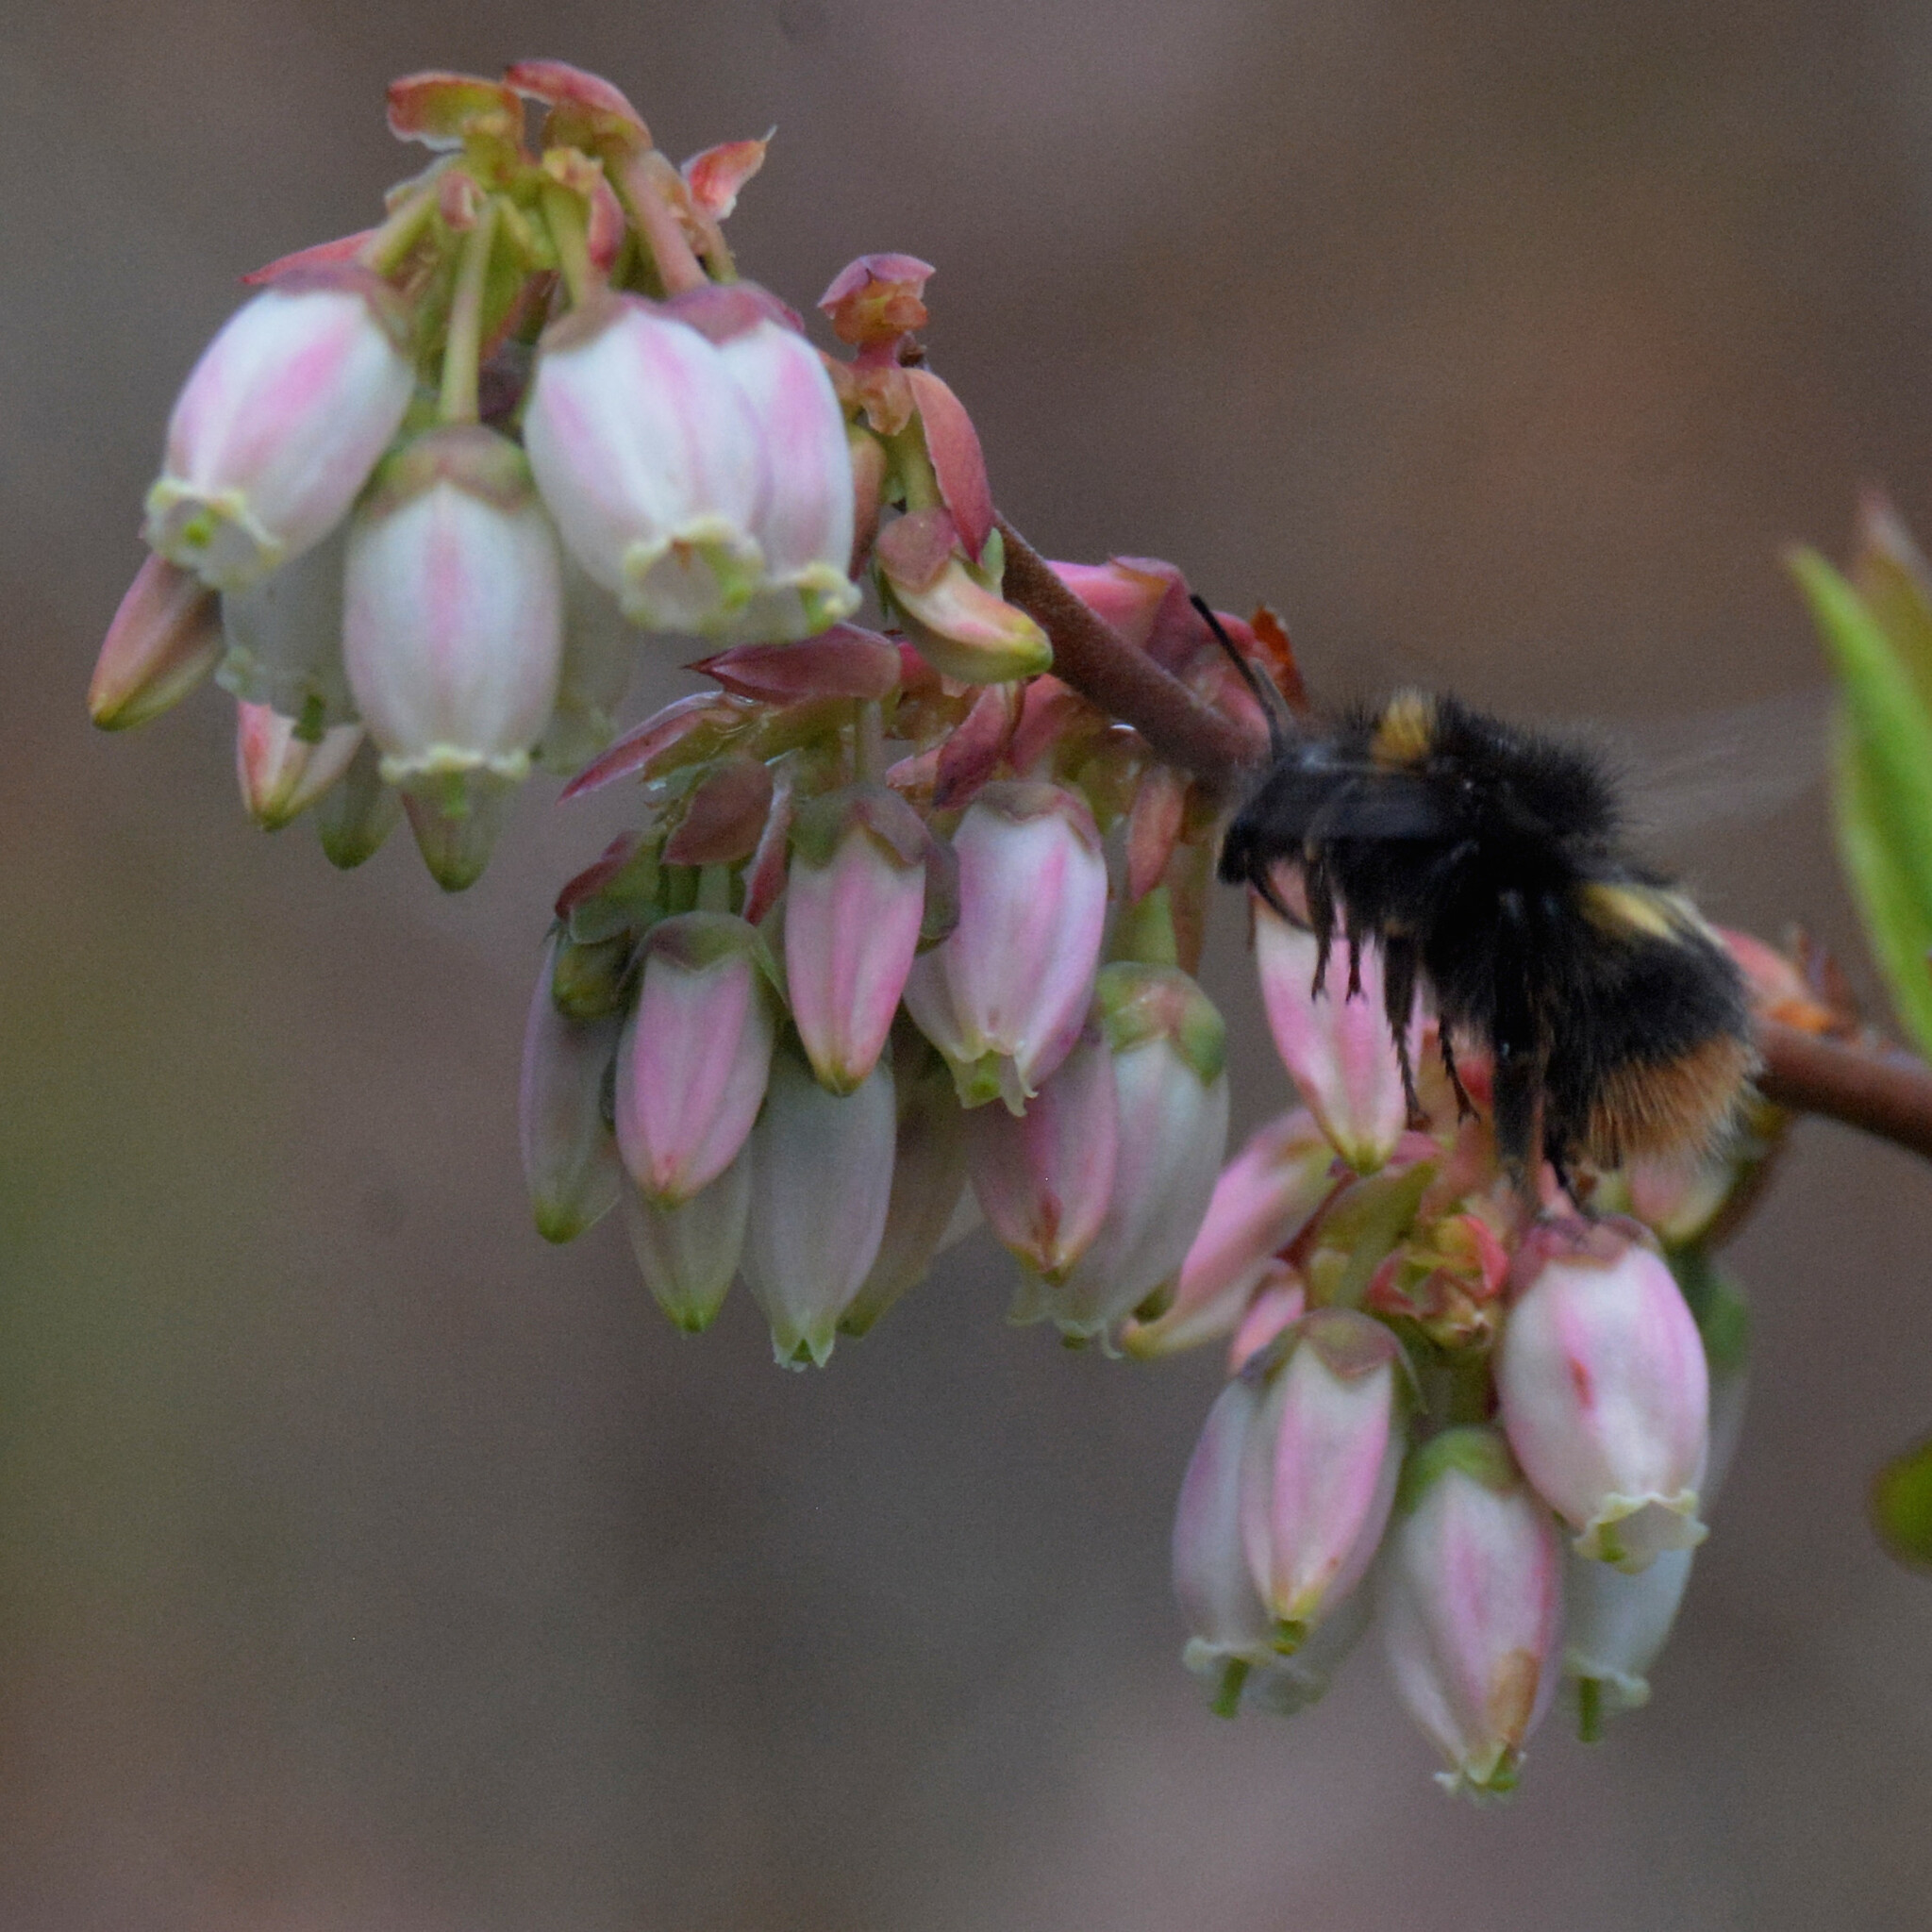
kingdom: Animalia
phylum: Arthropoda
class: Insecta
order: Hymenoptera
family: Apidae
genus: Bombus
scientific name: Bombus pratorum
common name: Early humble-bee
